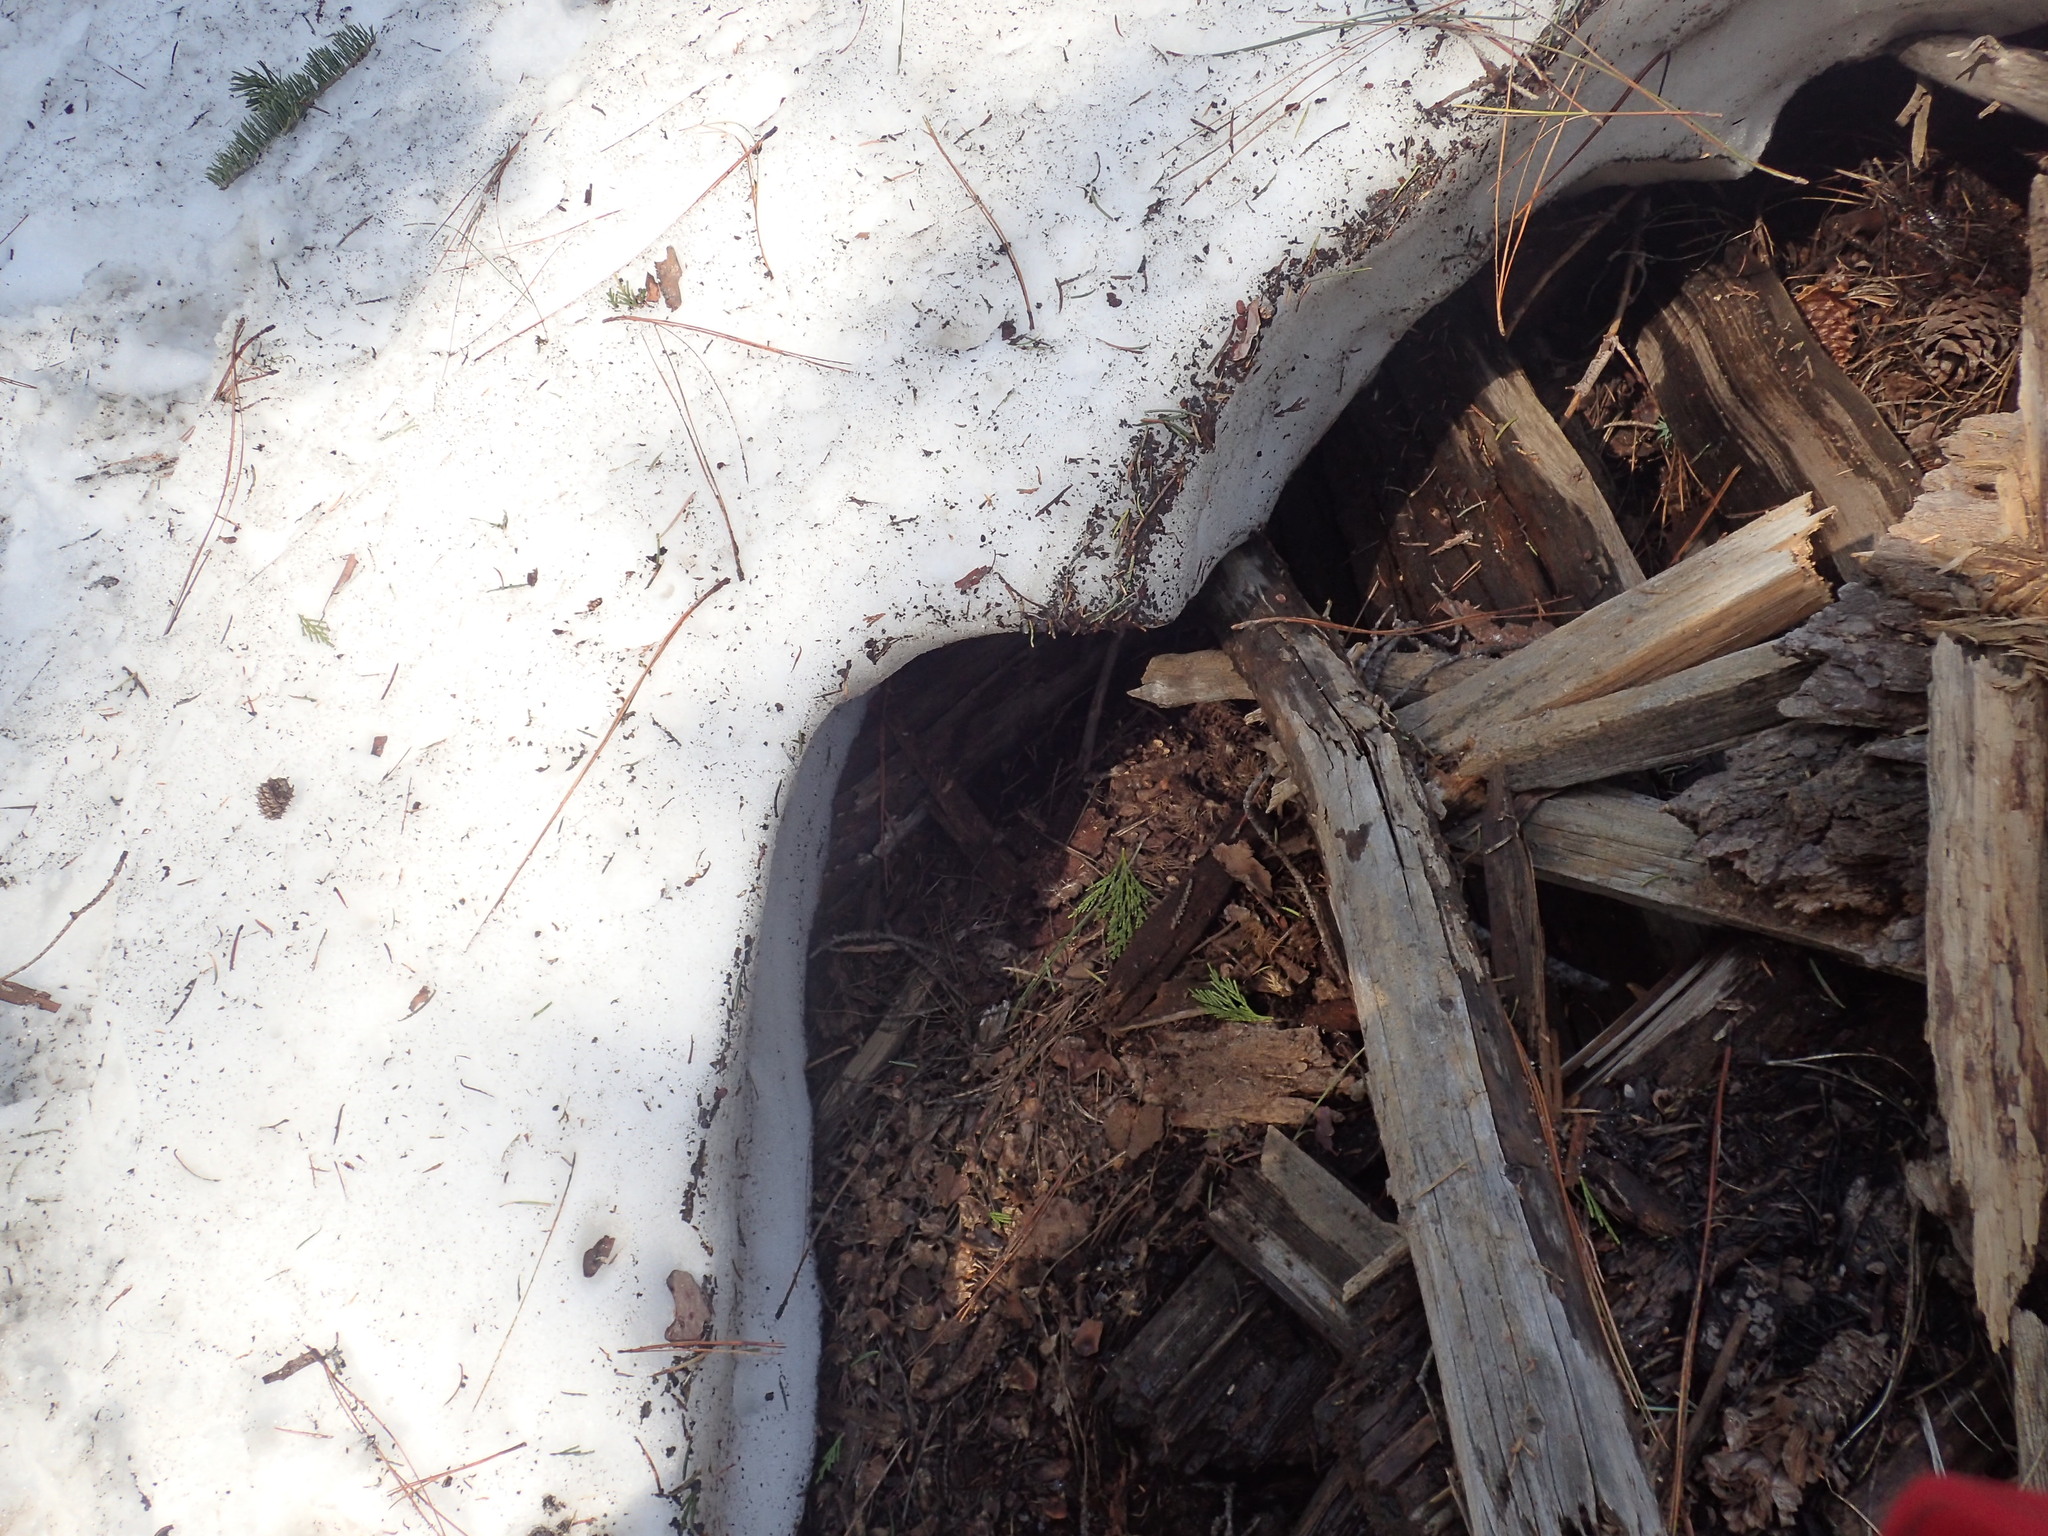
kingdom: Fungi
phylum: Basidiomycota
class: Dacrymycetes
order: Dacrymycetales
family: Dacrymycetaceae
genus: Guepiniopsis
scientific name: Guepiniopsis alpina
